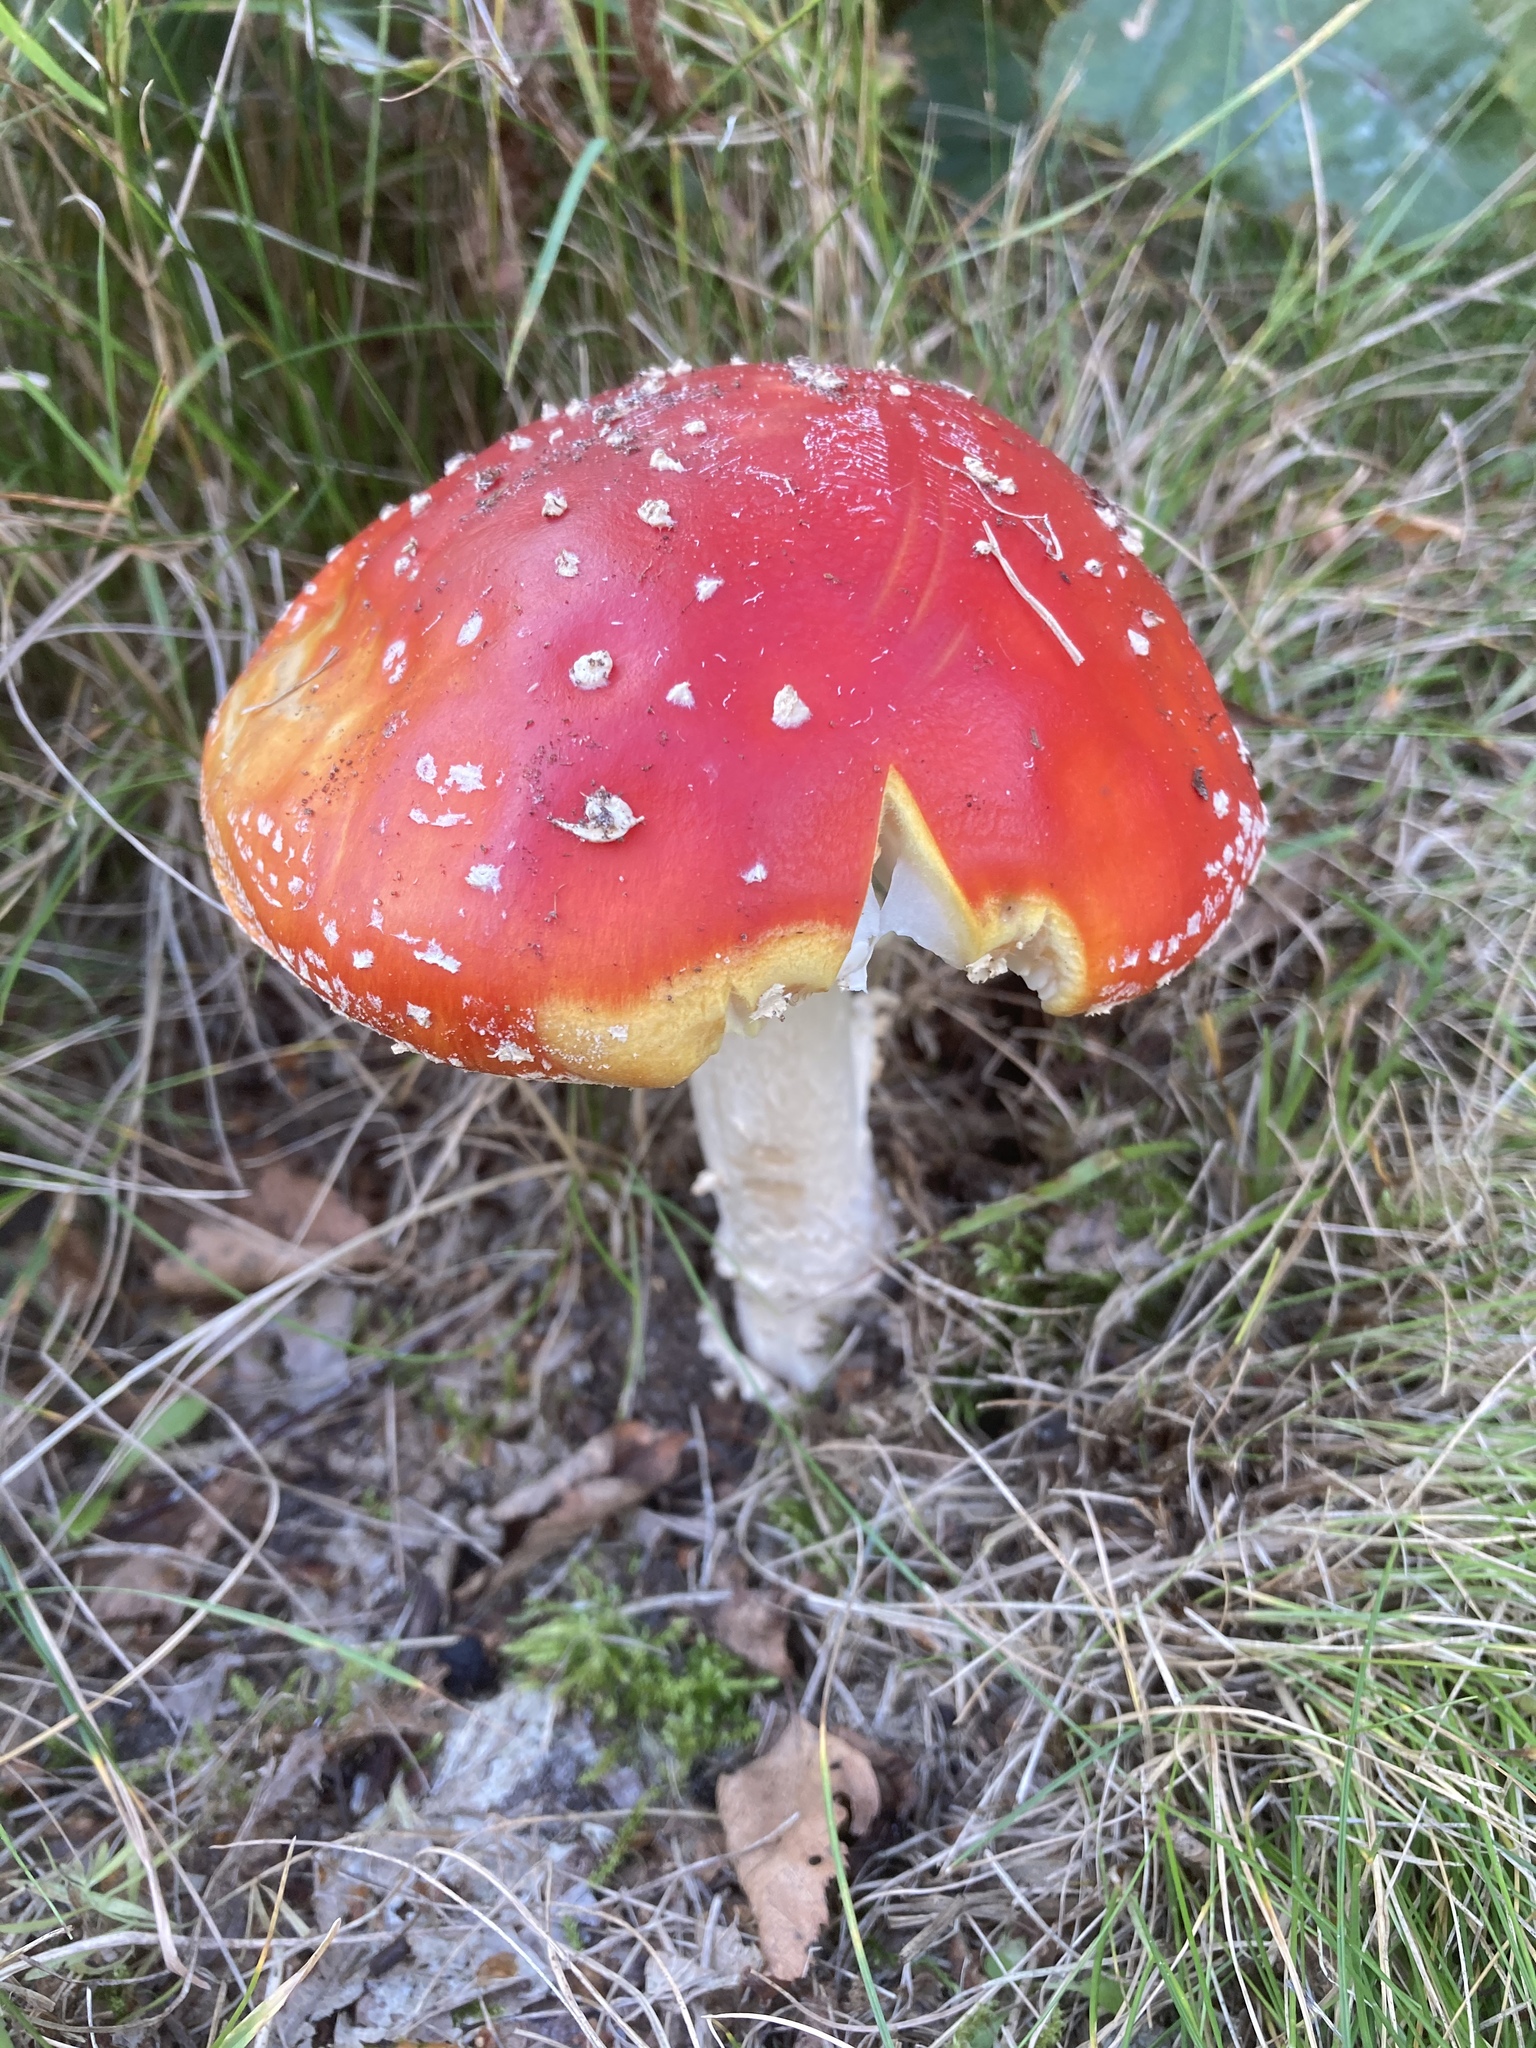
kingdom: Fungi
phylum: Basidiomycota
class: Agaricomycetes
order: Agaricales
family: Amanitaceae
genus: Amanita
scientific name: Amanita muscaria
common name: Fly agaric
